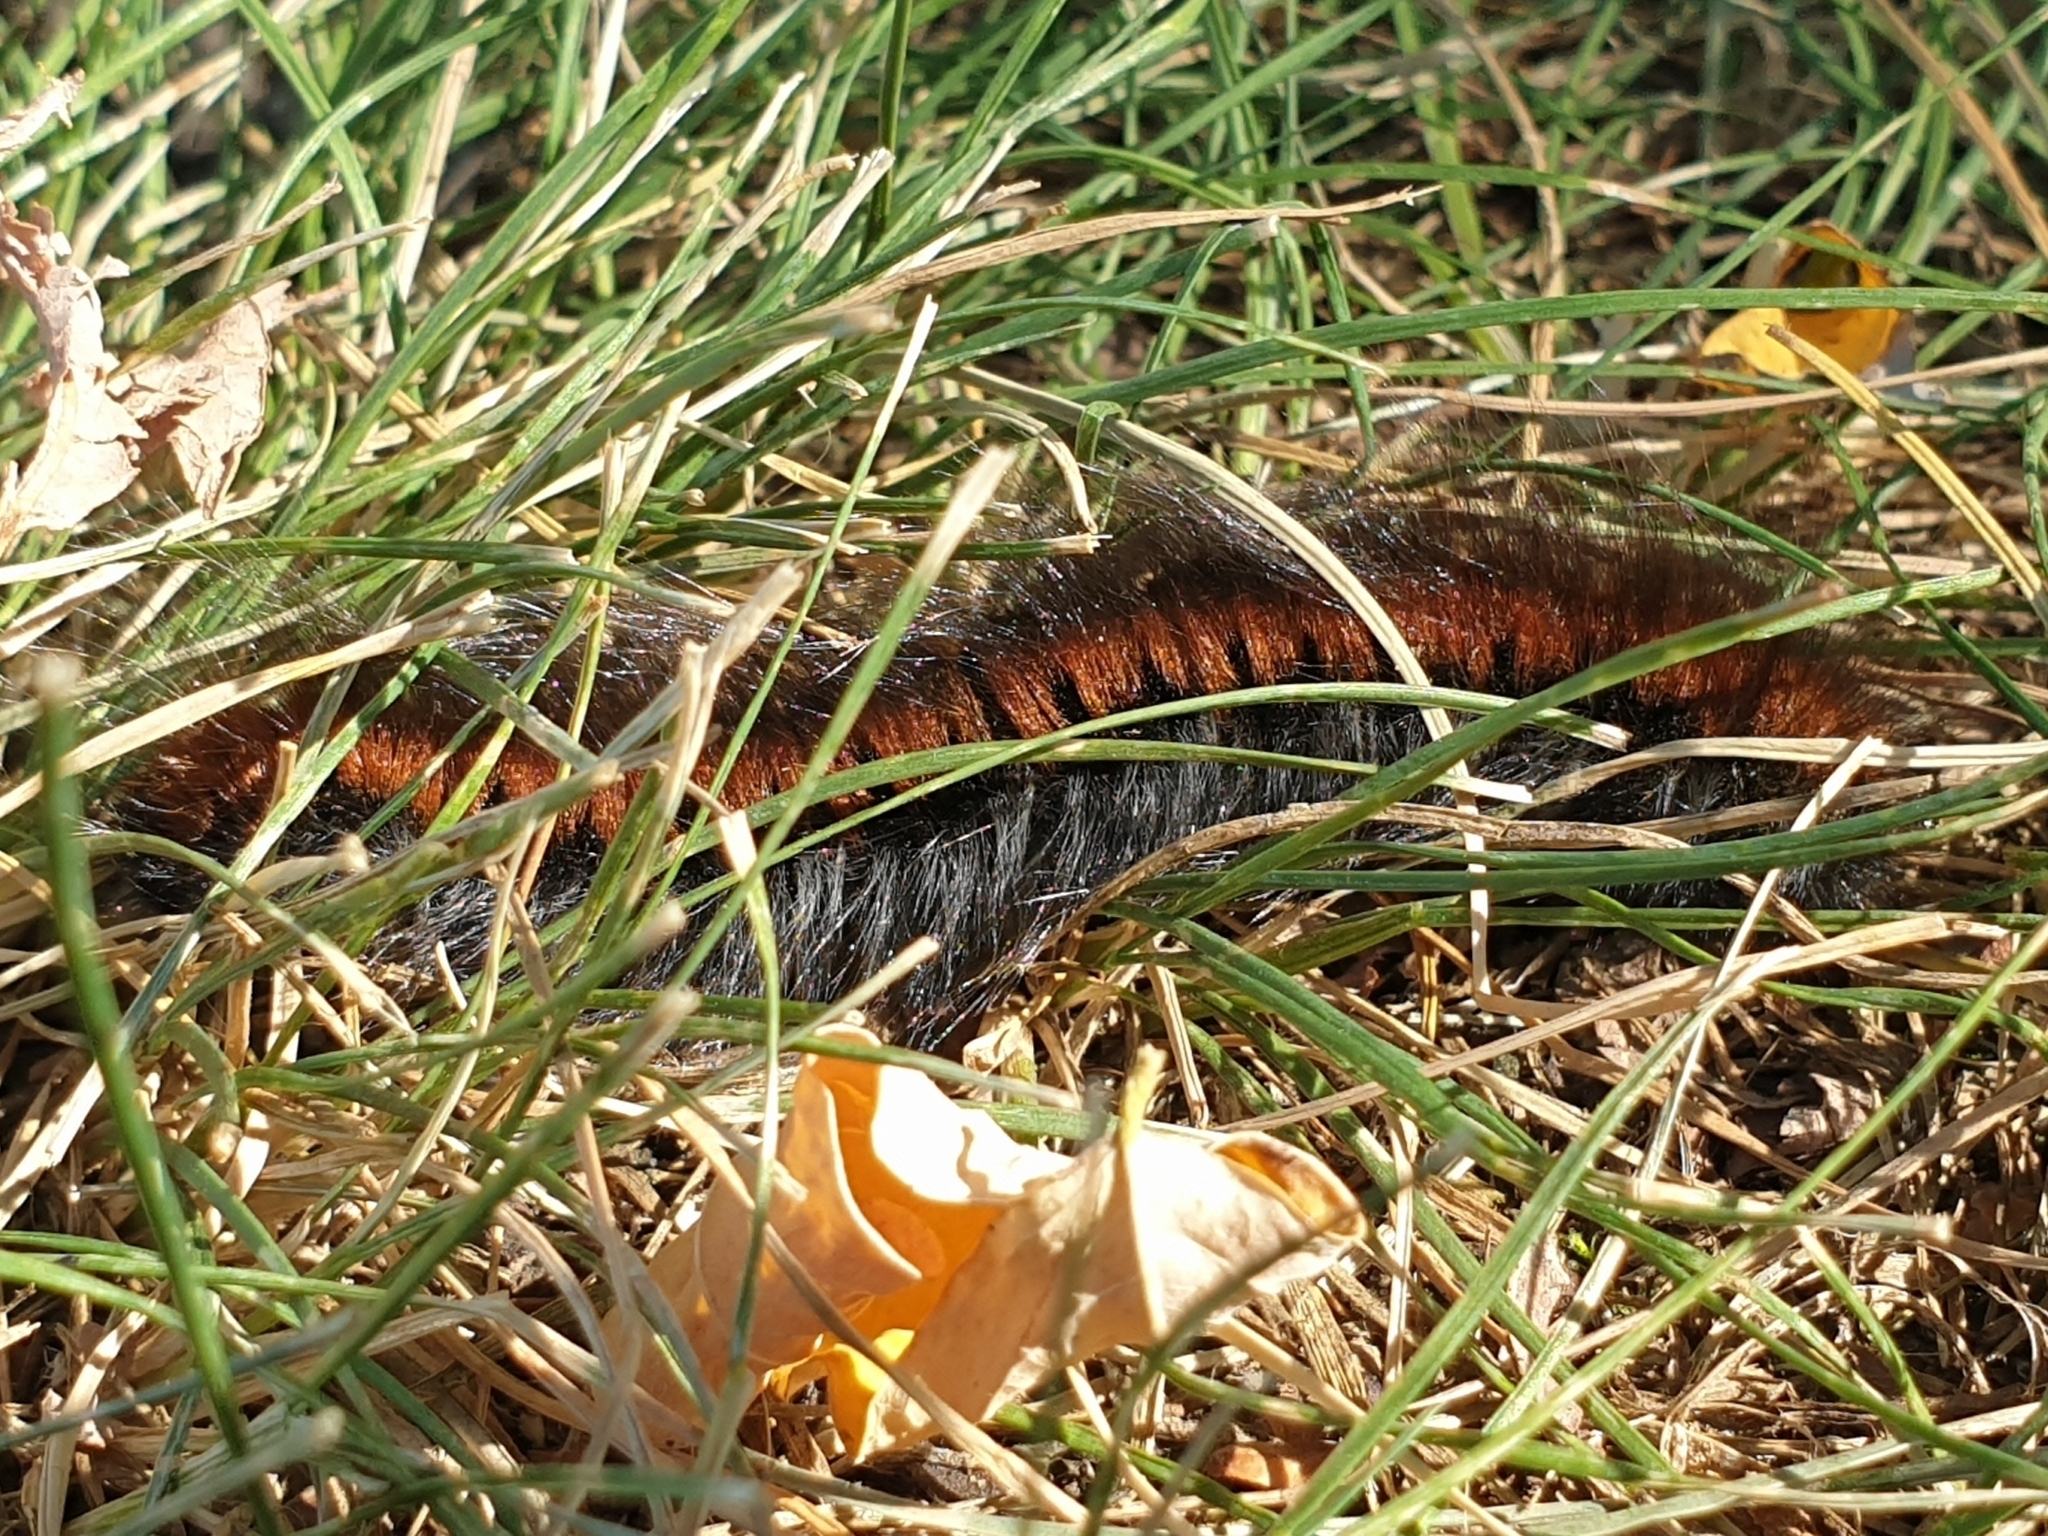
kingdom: Animalia
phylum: Arthropoda
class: Insecta
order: Lepidoptera
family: Lasiocampidae
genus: Macrothylacia
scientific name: Macrothylacia rubi
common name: Fox moth
